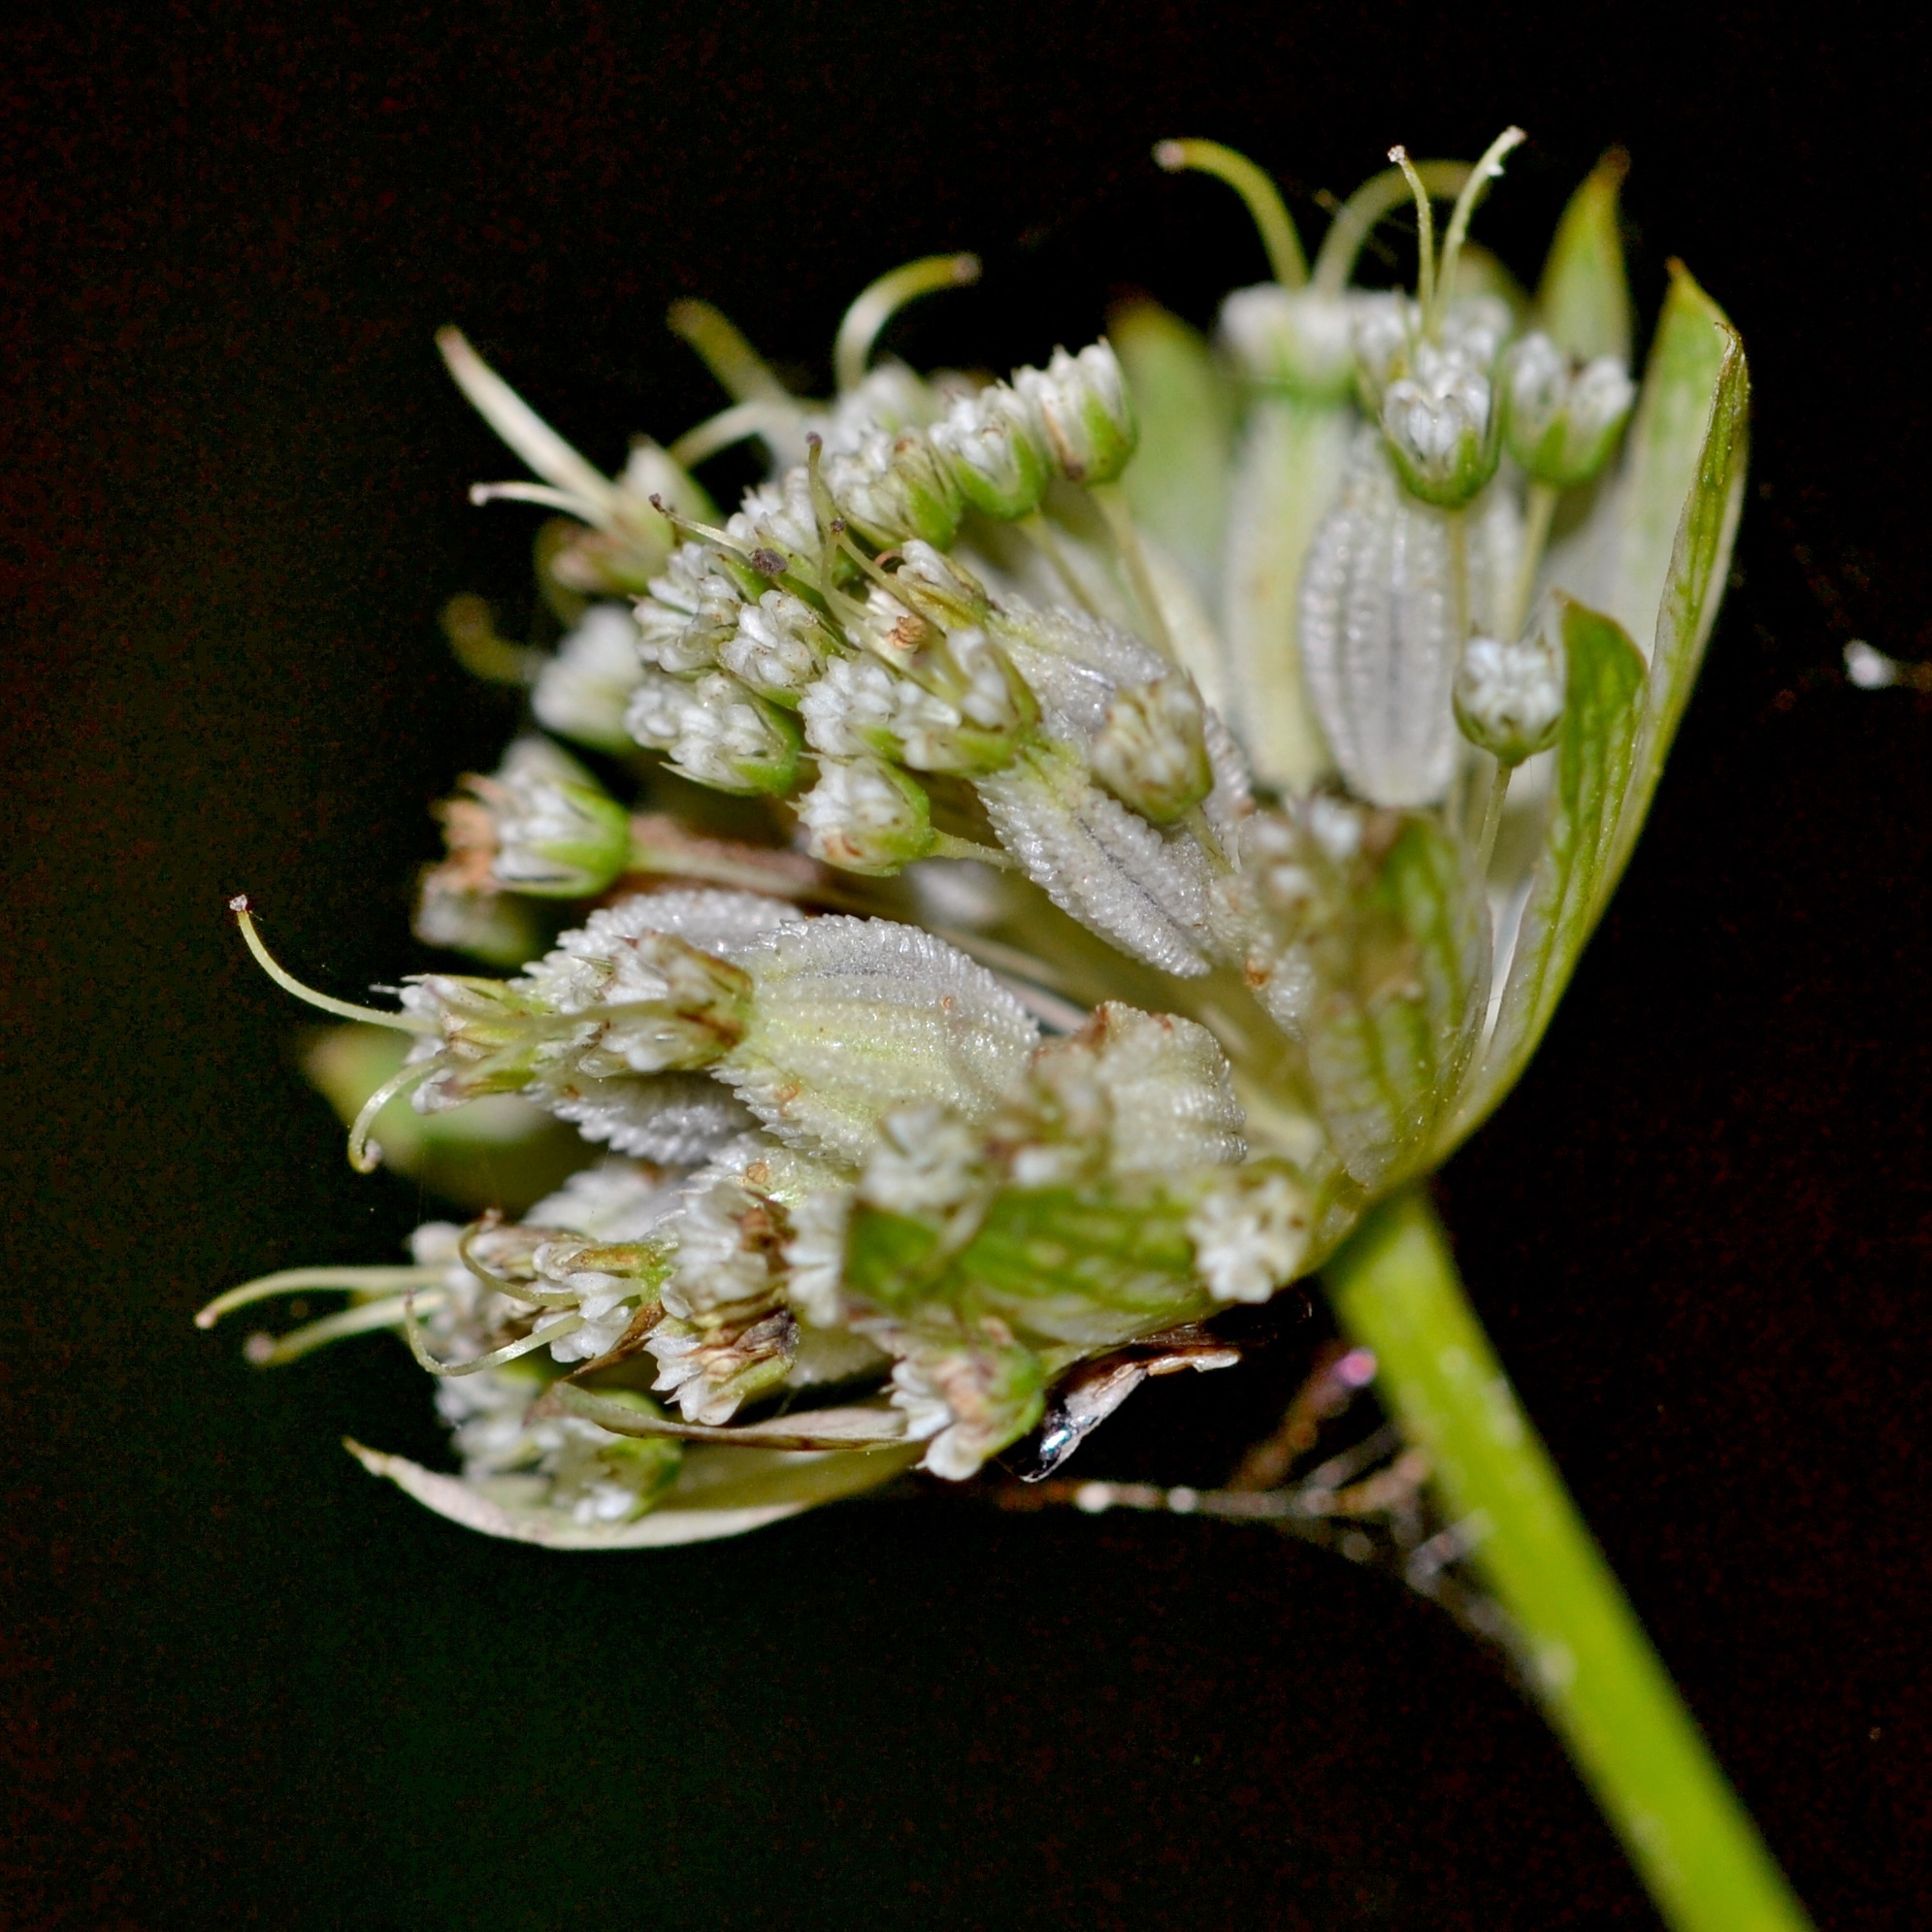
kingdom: Plantae
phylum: Tracheophyta
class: Magnoliopsida
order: Apiales
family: Apiaceae
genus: Astrantia
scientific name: Astrantia major
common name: Greater masterwort
